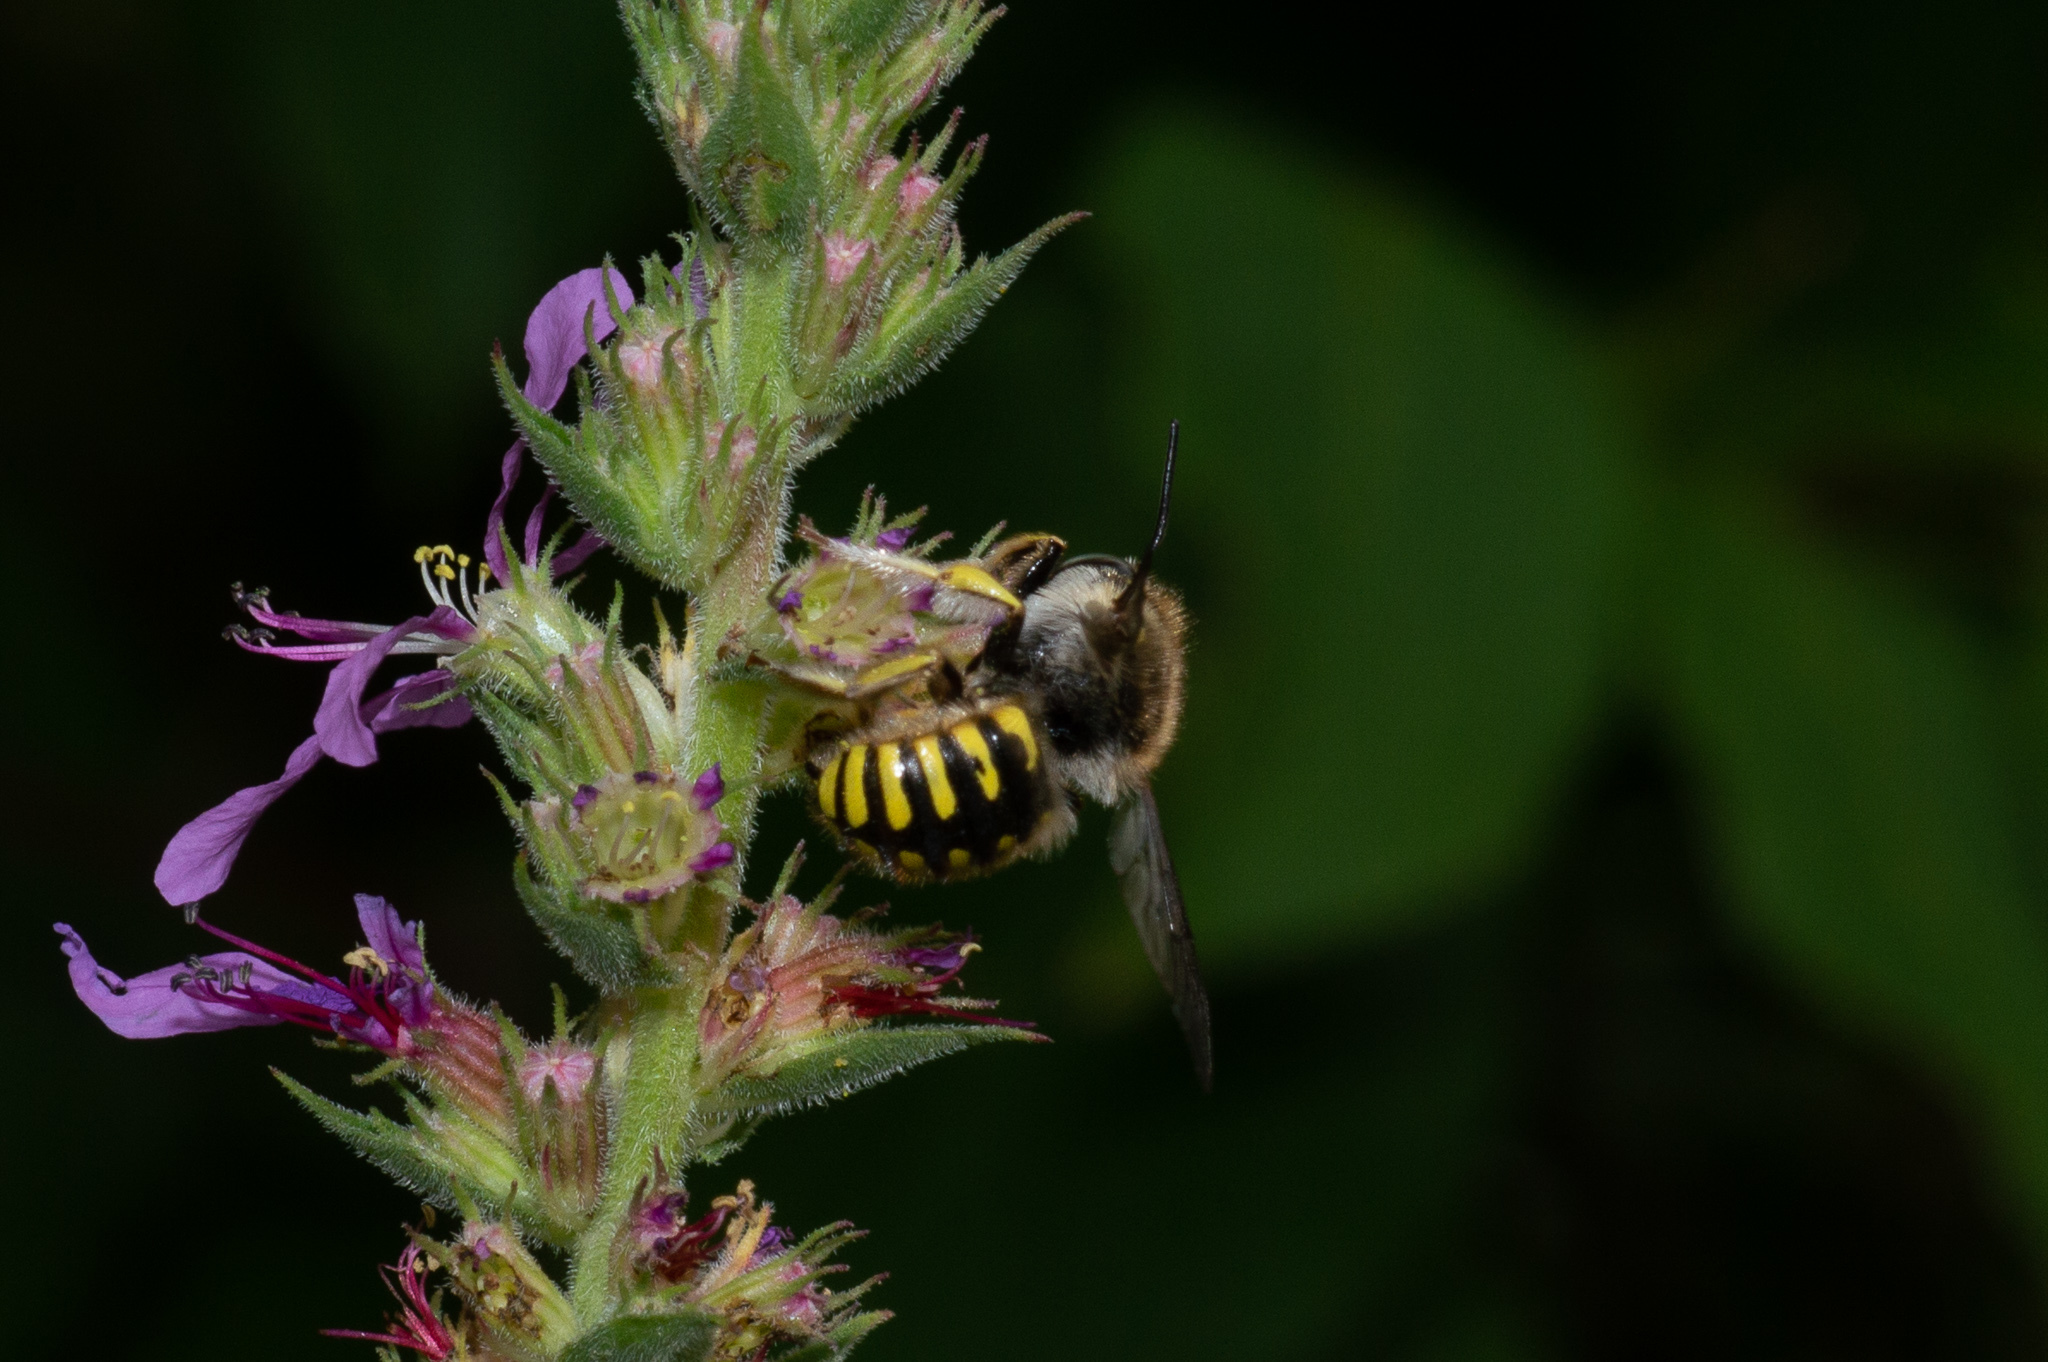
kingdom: Animalia
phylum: Arthropoda
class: Insecta
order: Hymenoptera
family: Megachilidae
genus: Anthidium
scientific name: Anthidium manicatum
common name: Wool carder bee
